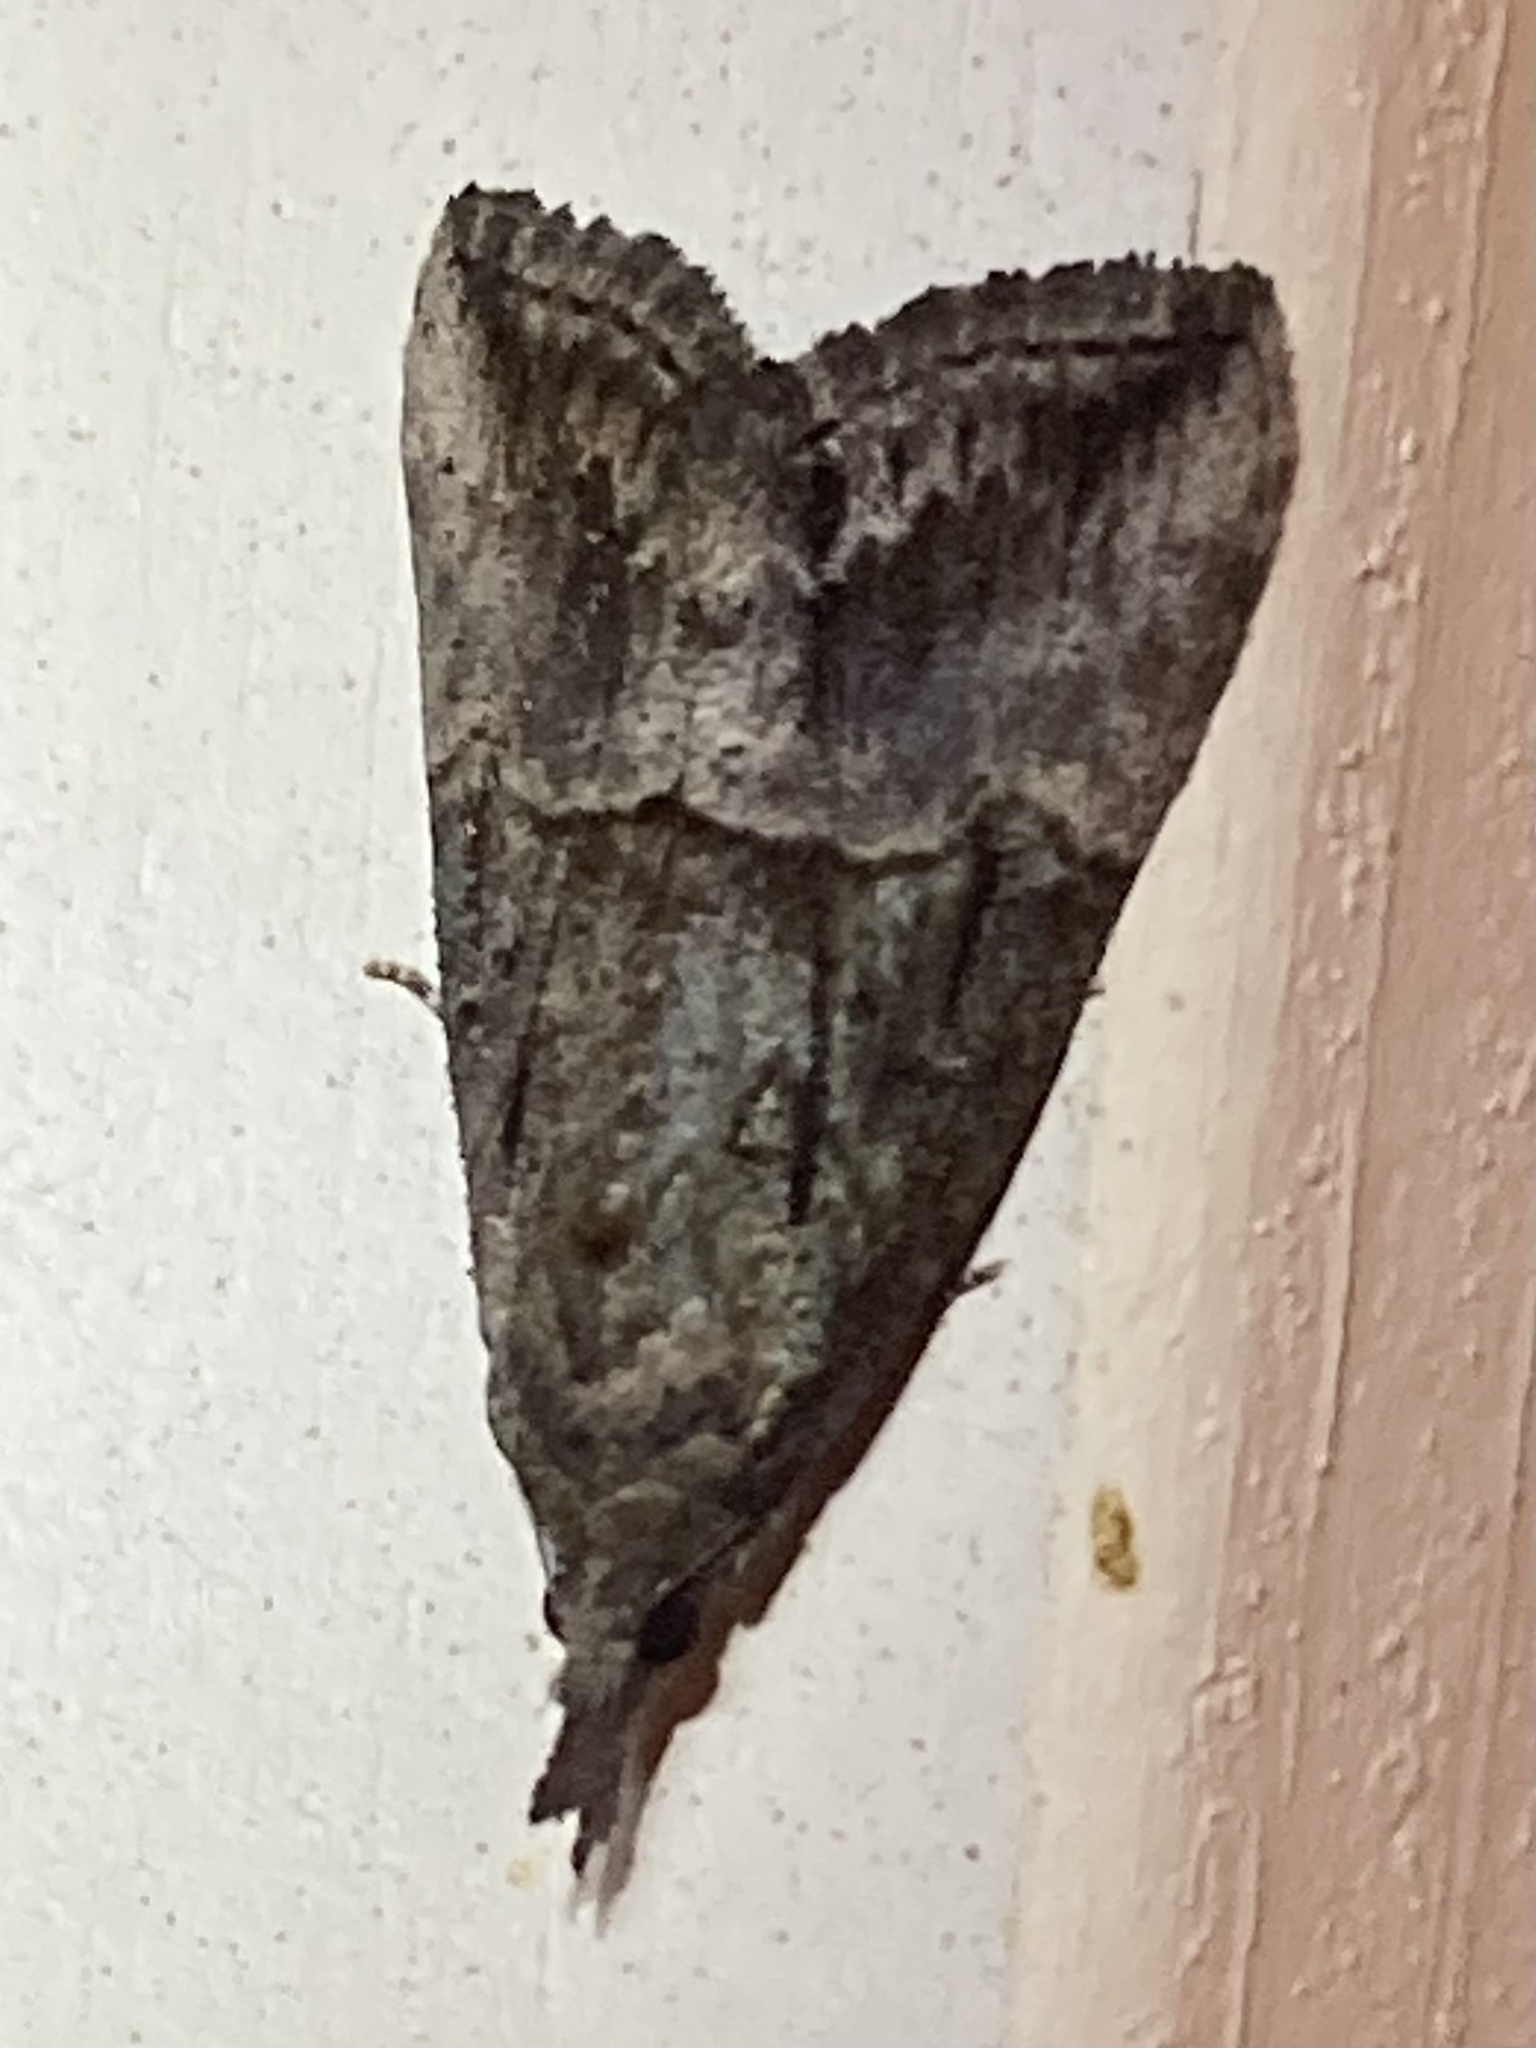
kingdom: Animalia
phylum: Arthropoda
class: Insecta
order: Lepidoptera
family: Erebidae
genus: Hypena
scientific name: Hypena scabra
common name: Green cloverworm
